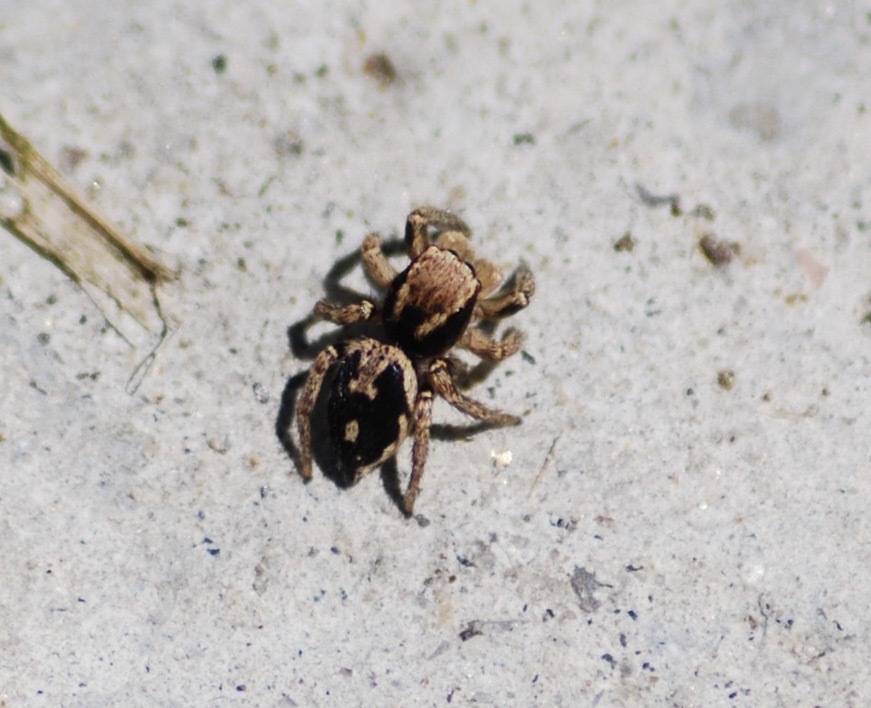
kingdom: Animalia
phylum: Arthropoda
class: Arachnida
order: Araneae
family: Salticidae
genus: Habronattus
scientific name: Habronattus pyrrithrix
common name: Jumping spider
